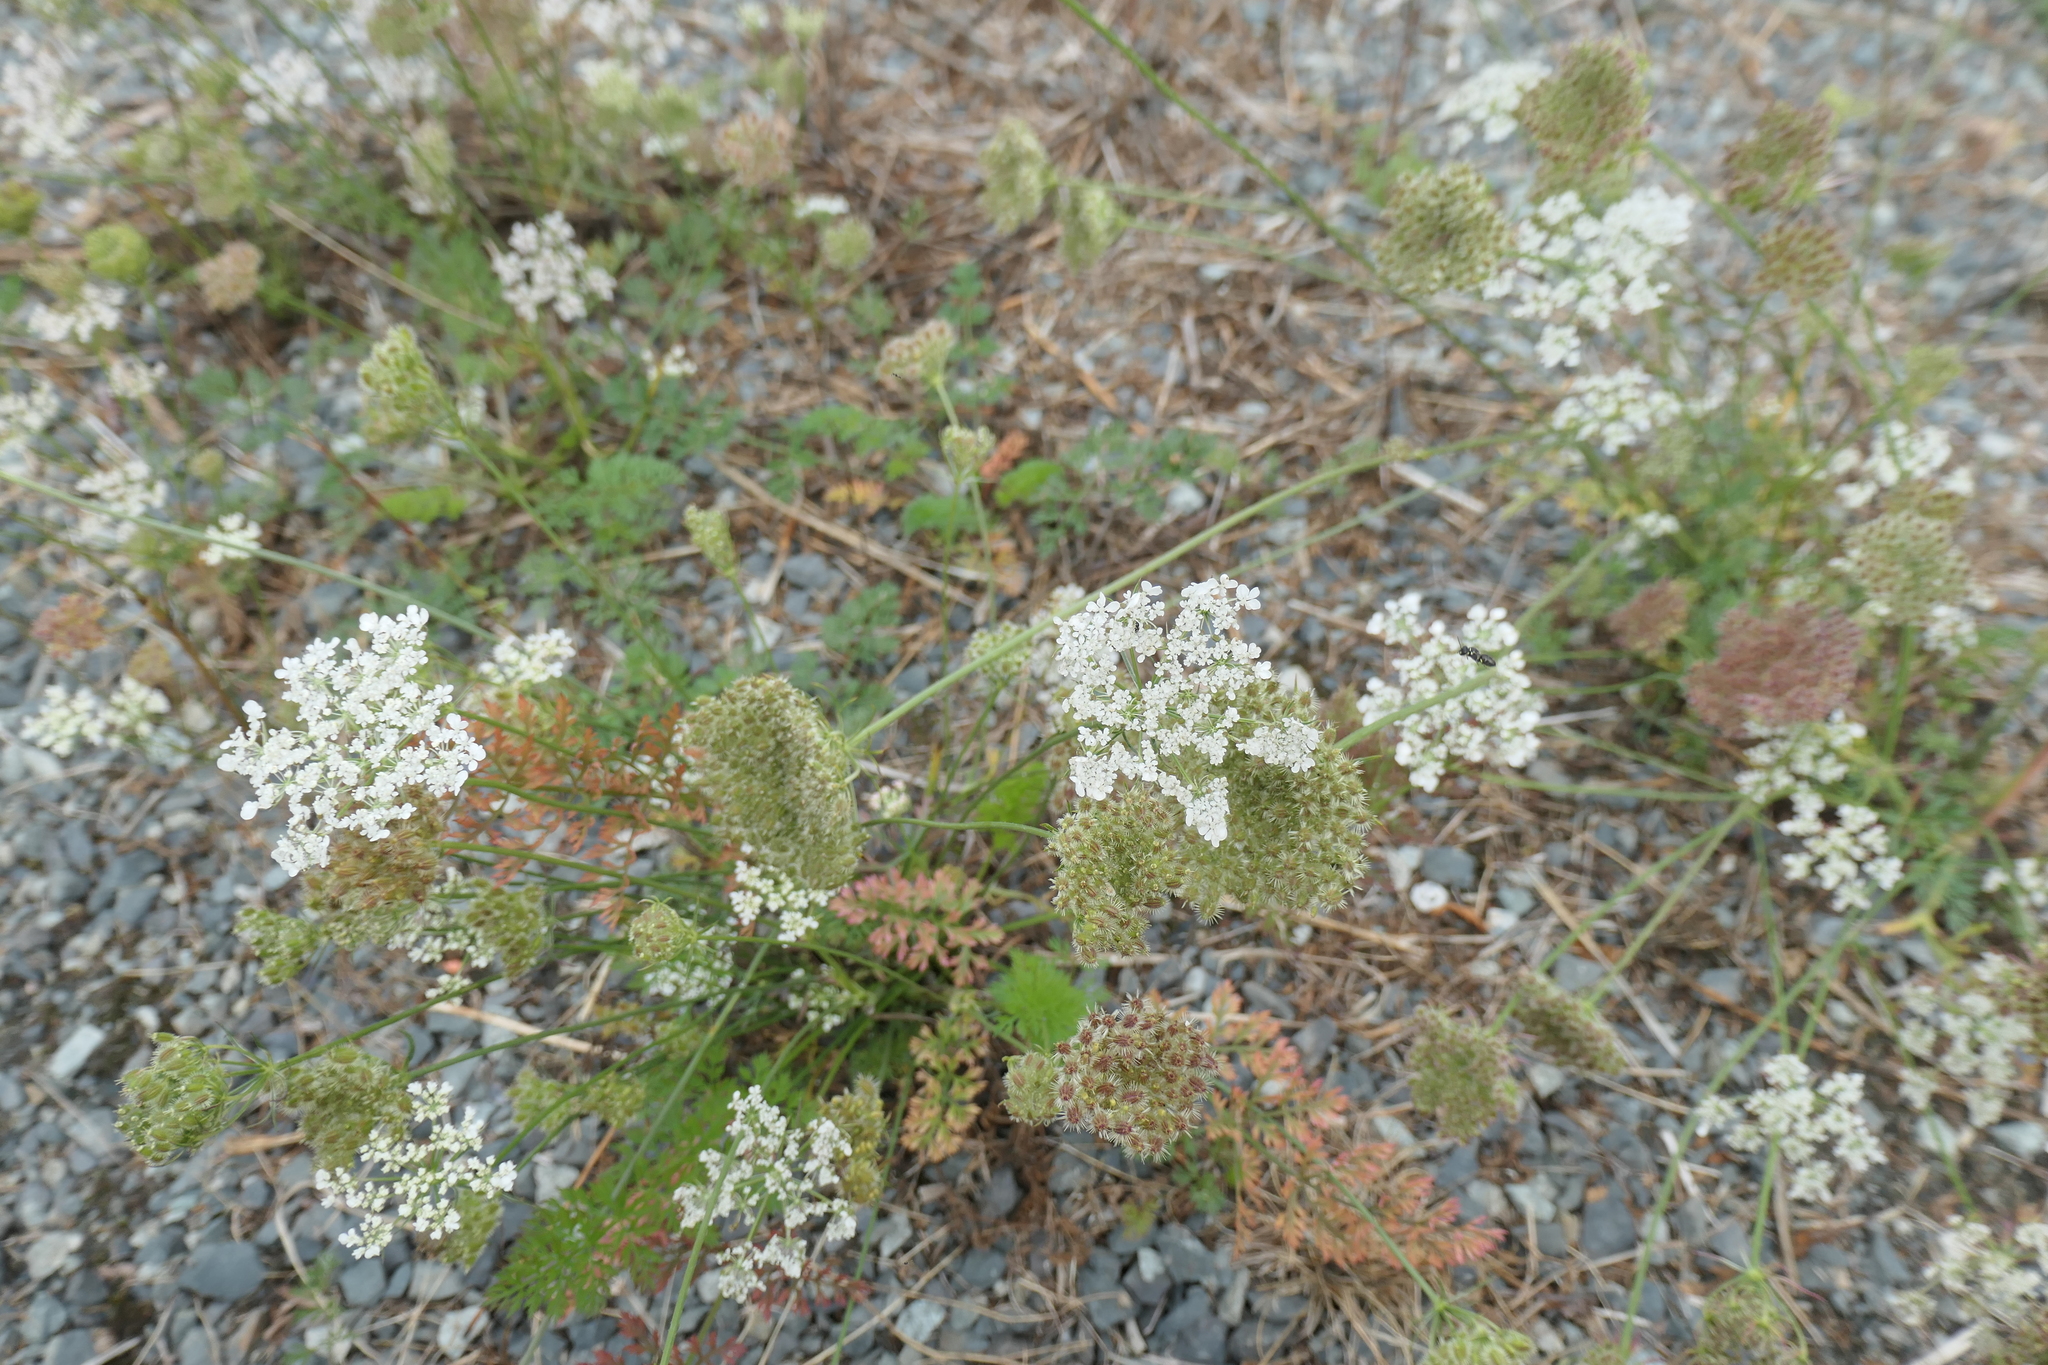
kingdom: Plantae
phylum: Tracheophyta
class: Magnoliopsida
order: Apiales
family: Apiaceae
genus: Daucus
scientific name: Daucus carota
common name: Wild carrot
